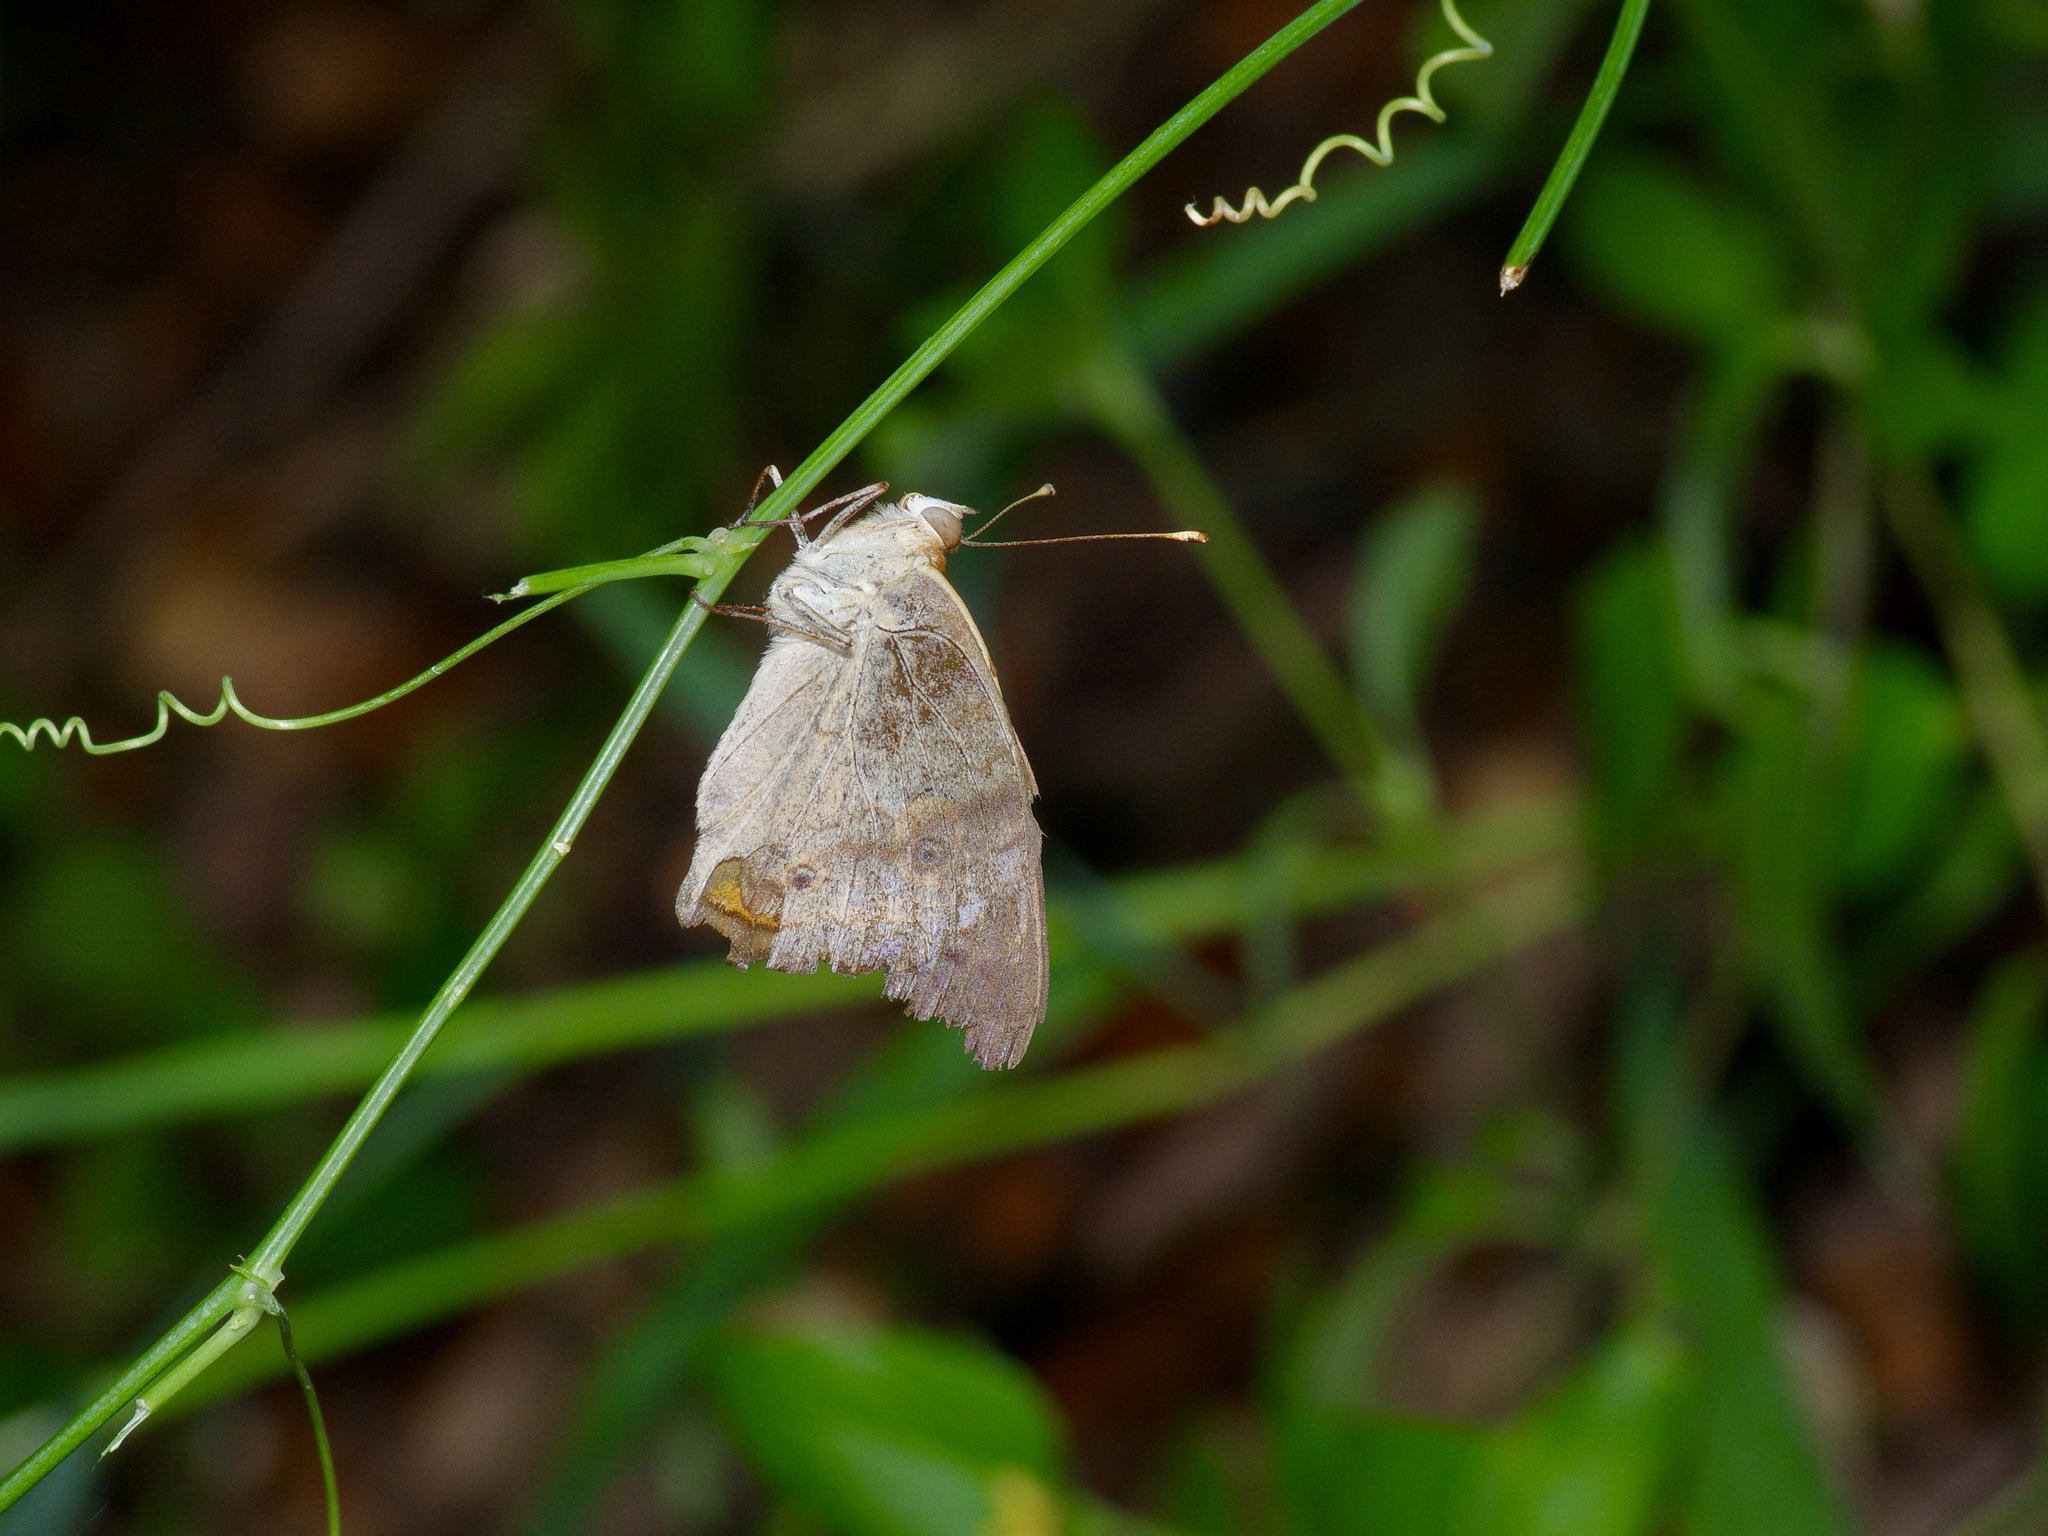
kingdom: Animalia
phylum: Arthropoda
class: Insecta
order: Lepidoptera
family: Nymphalidae
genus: Junonia
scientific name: Junonia coenia
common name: Common buckeye
